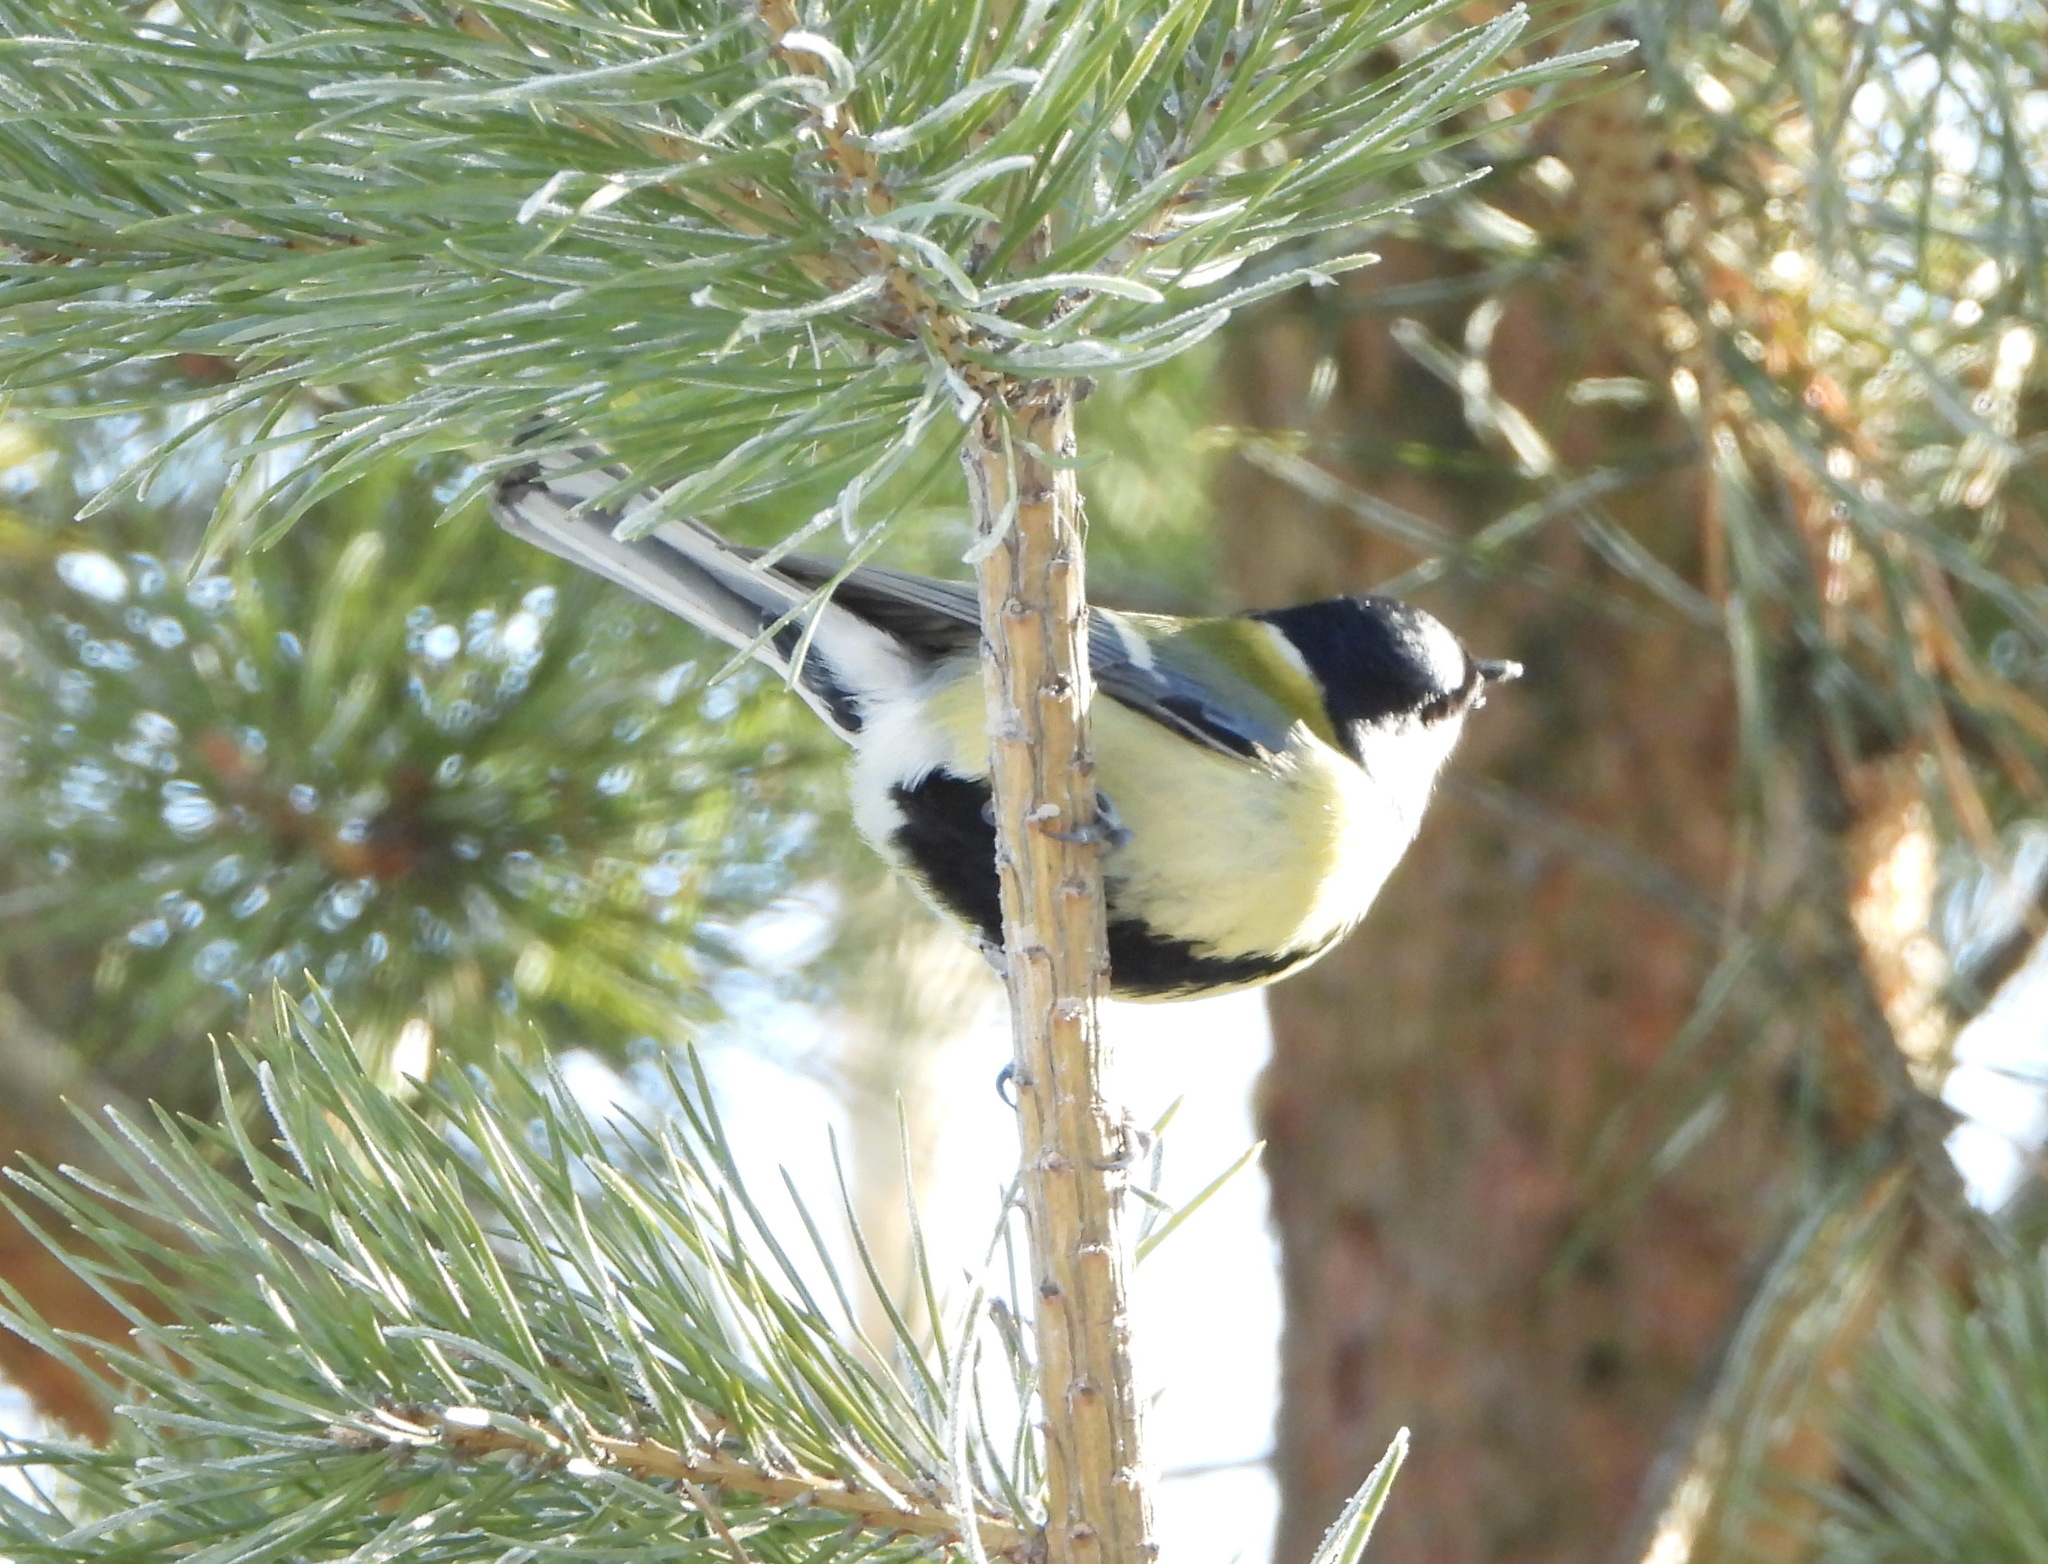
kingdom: Animalia
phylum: Chordata
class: Aves
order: Passeriformes
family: Paridae
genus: Parus
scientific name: Parus major
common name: Great tit
